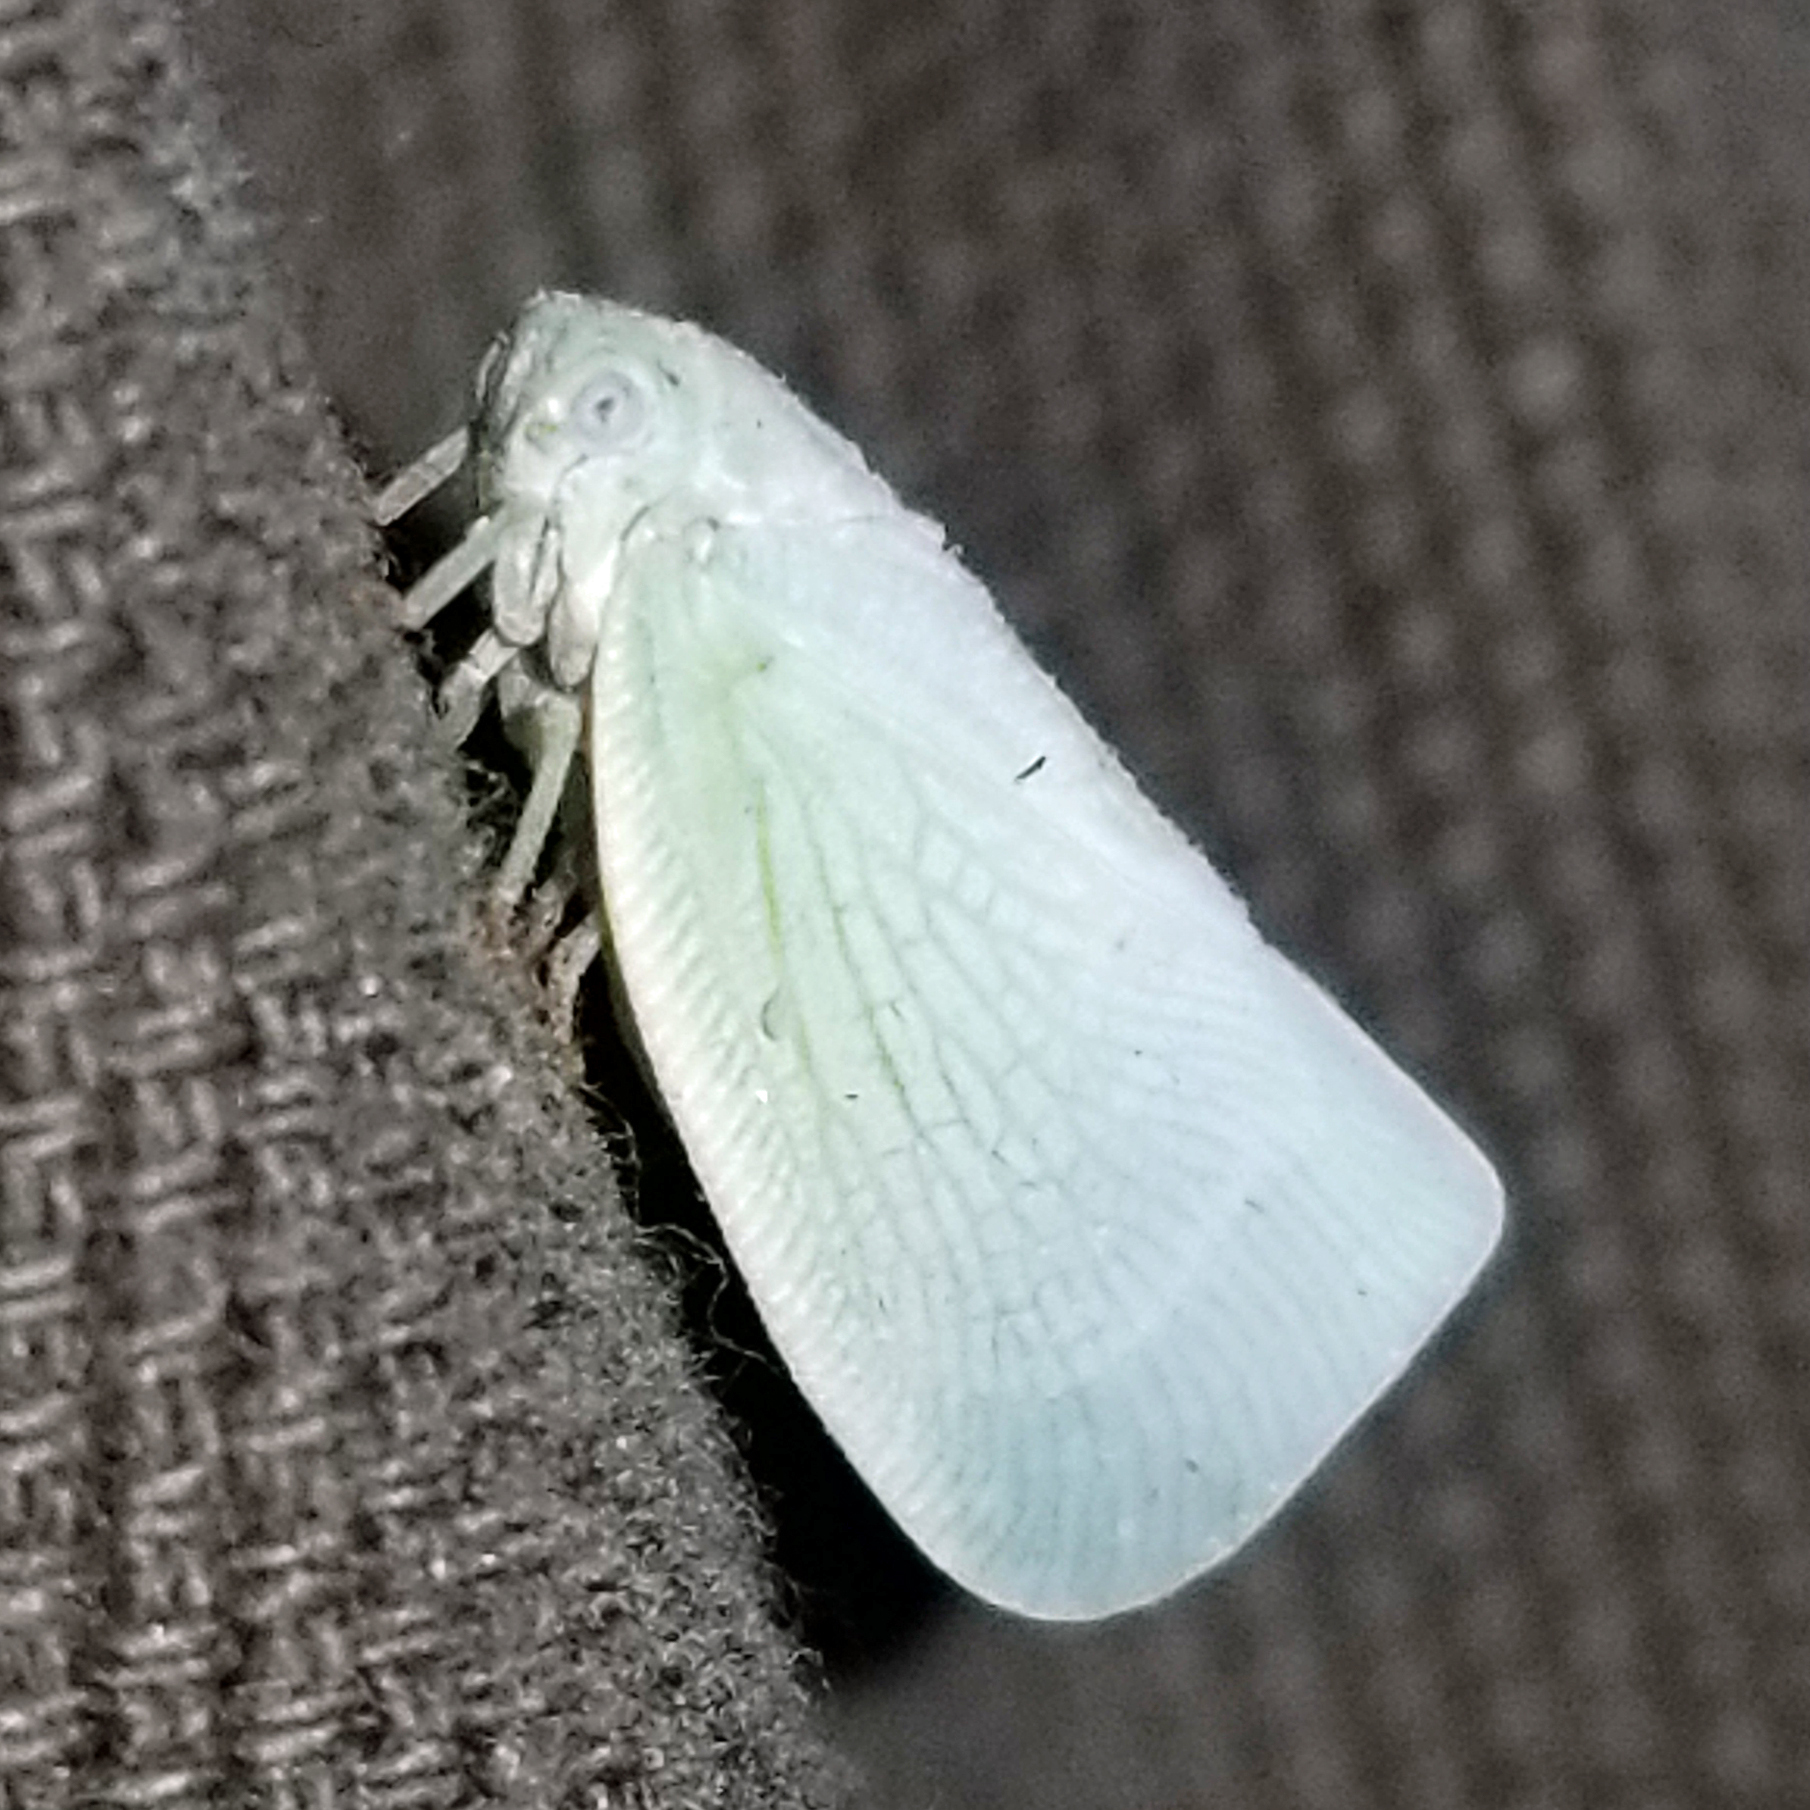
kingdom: Animalia
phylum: Arthropoda
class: Insecta
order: Hemiptera
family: Flatidae
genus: Flatormenis
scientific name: Flatormenis proxima
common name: Northern flatid planthopper
